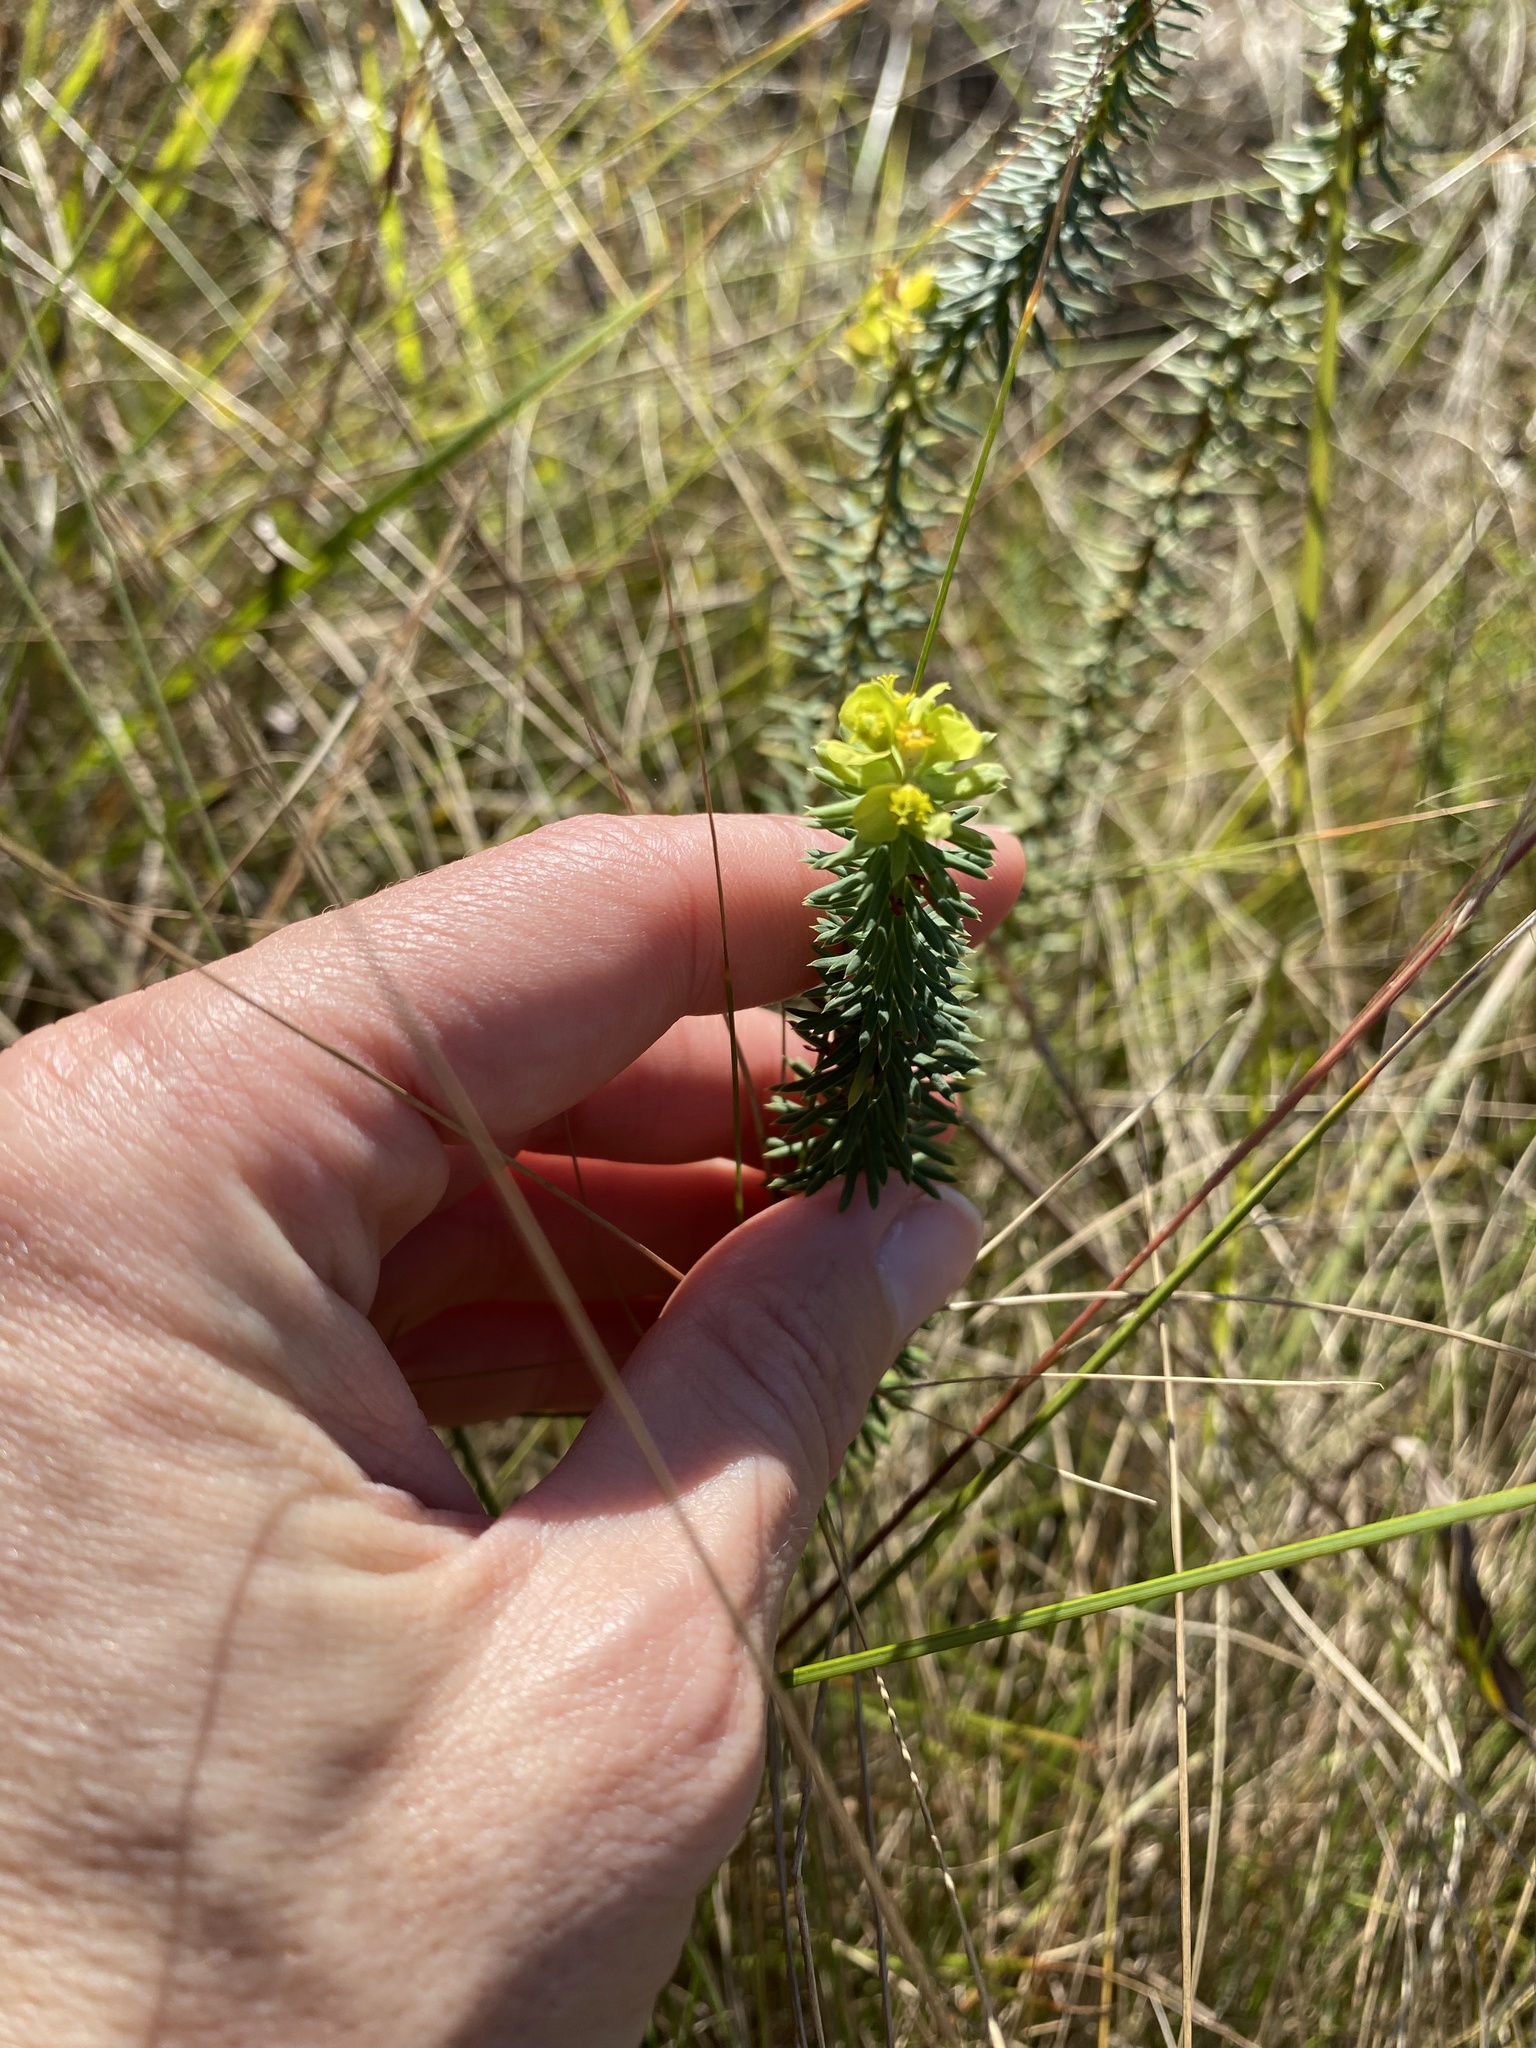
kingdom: Plantae
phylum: Tracheophyta
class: Magnoliopsida
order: Malpighiales
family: Euphorbiaceae
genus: Euphorbia
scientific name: Euphorbia natalensis
